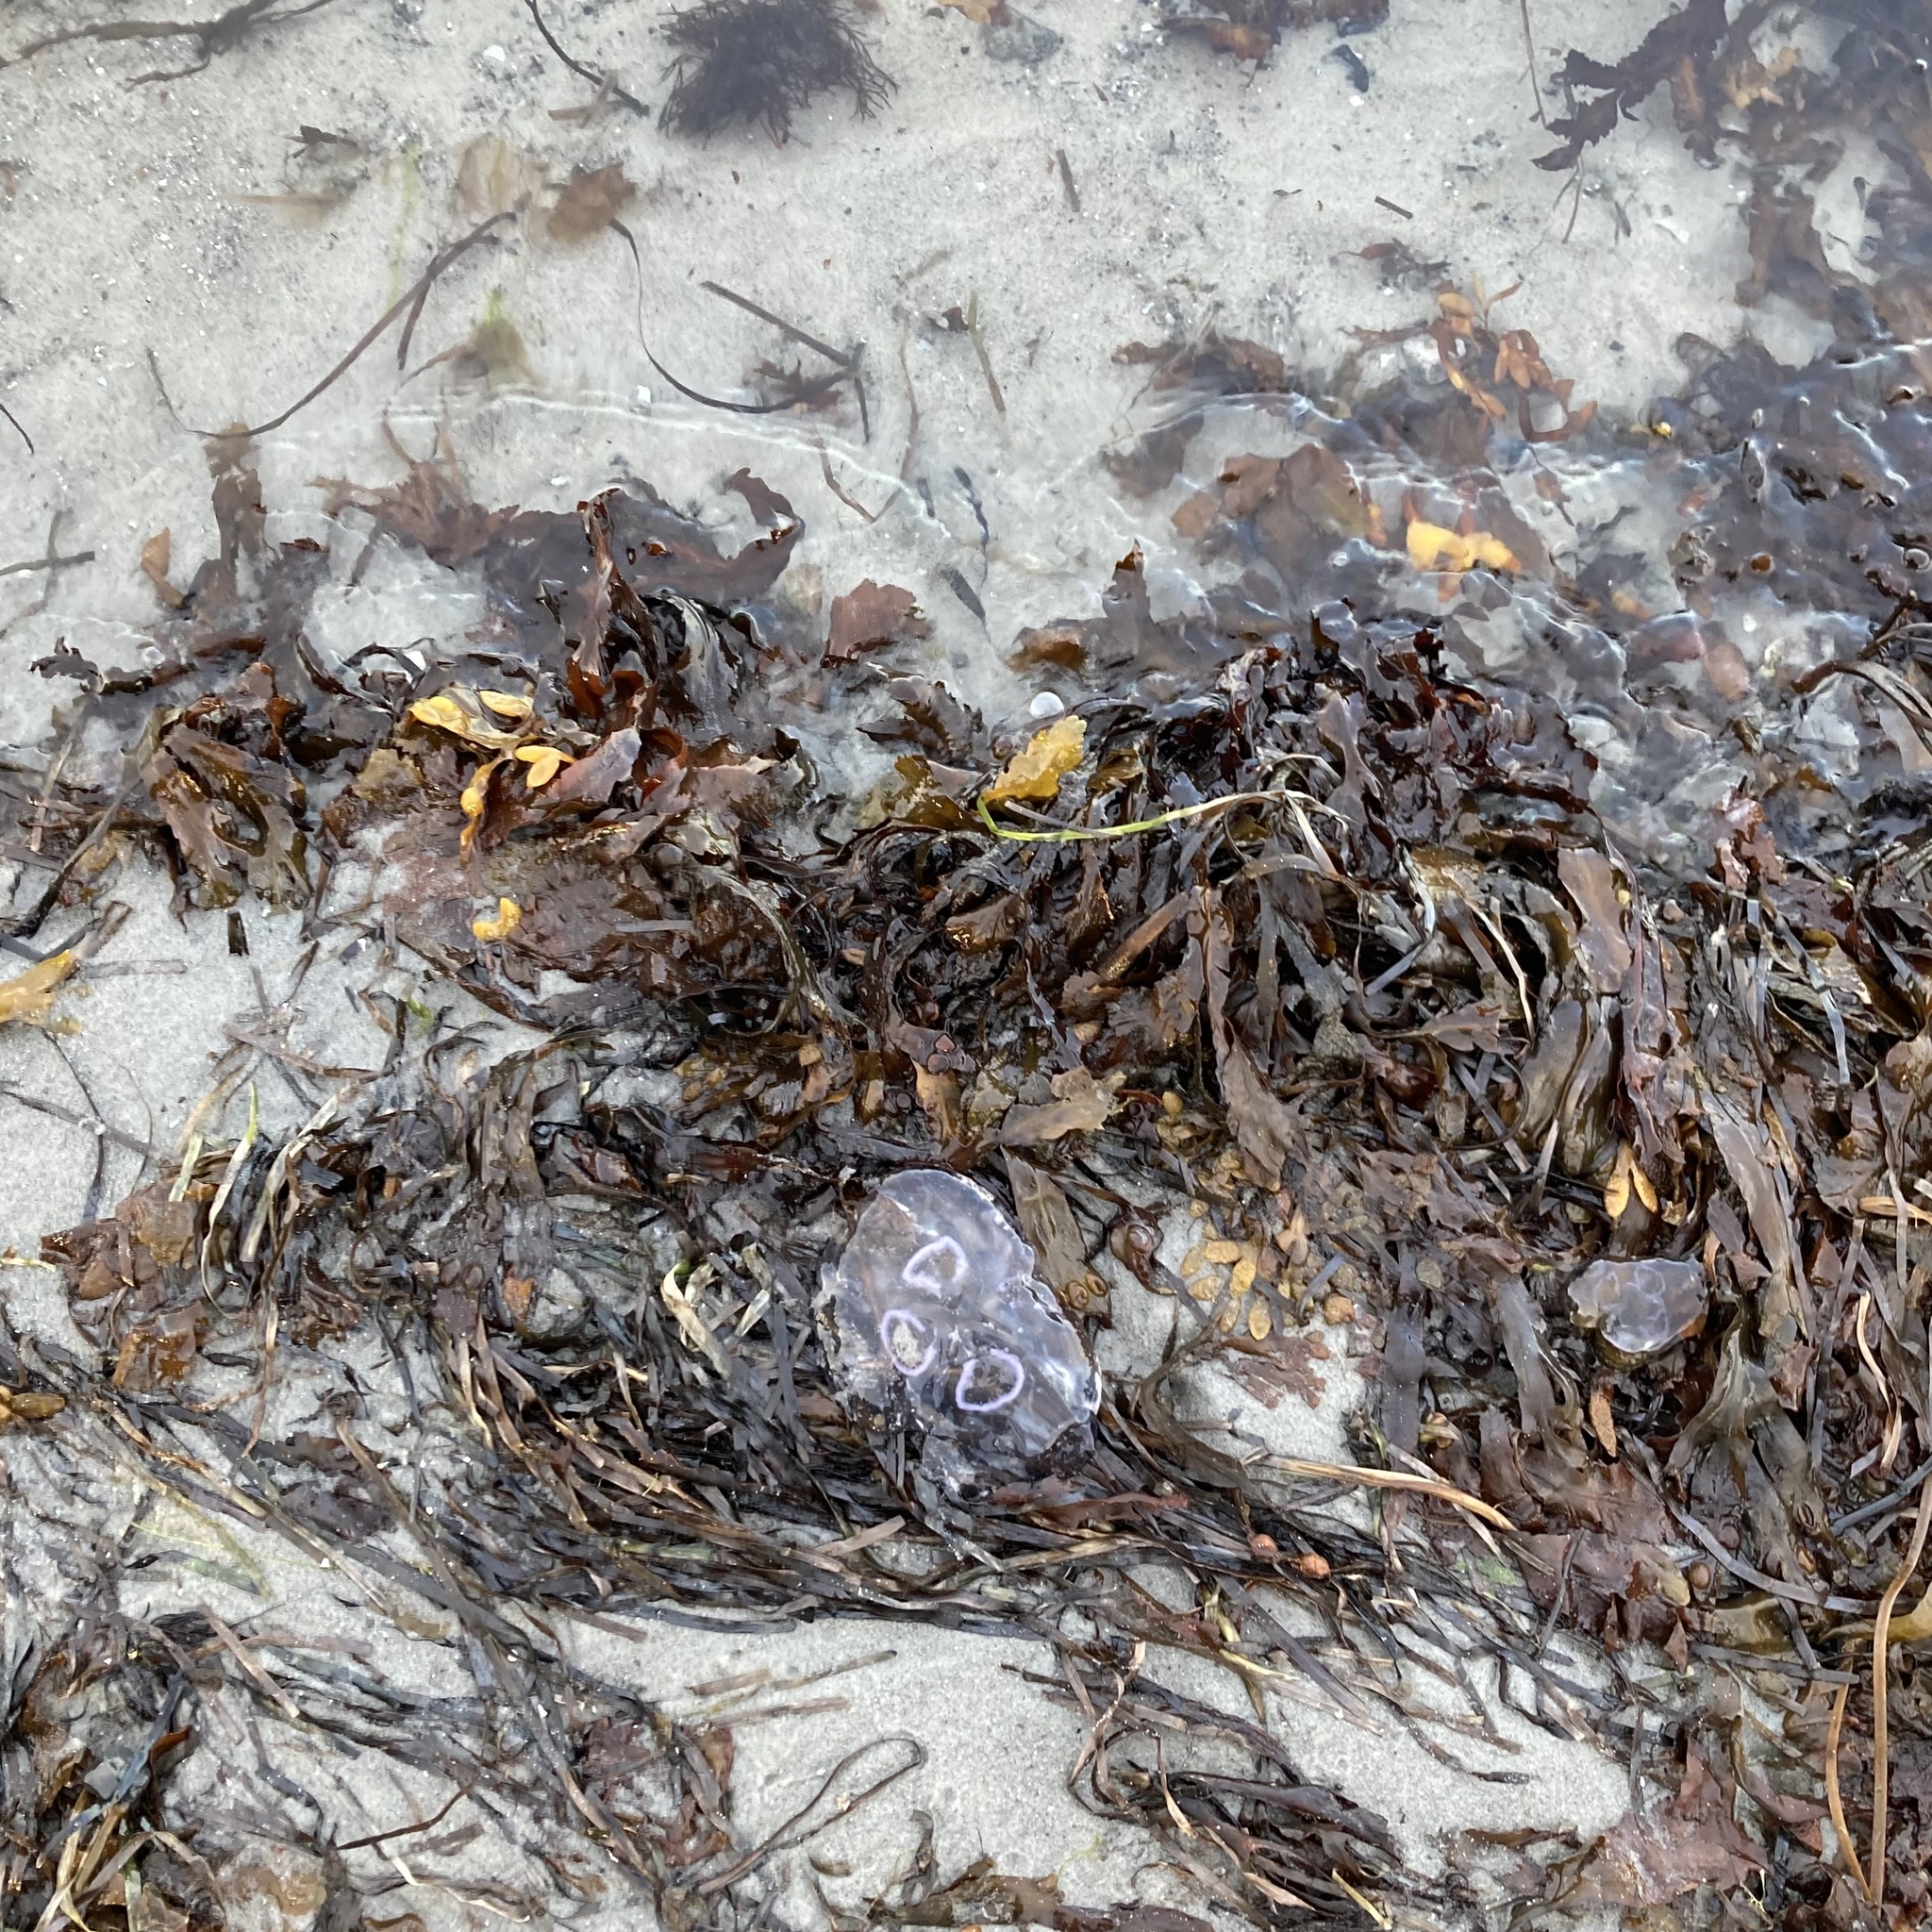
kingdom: Animalia
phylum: Cnidaria
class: Scyphozoa
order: Semaeostomeae
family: Ulmaridae
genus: Aurelia
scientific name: Aurelia aurita
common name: Moon jellyfish
